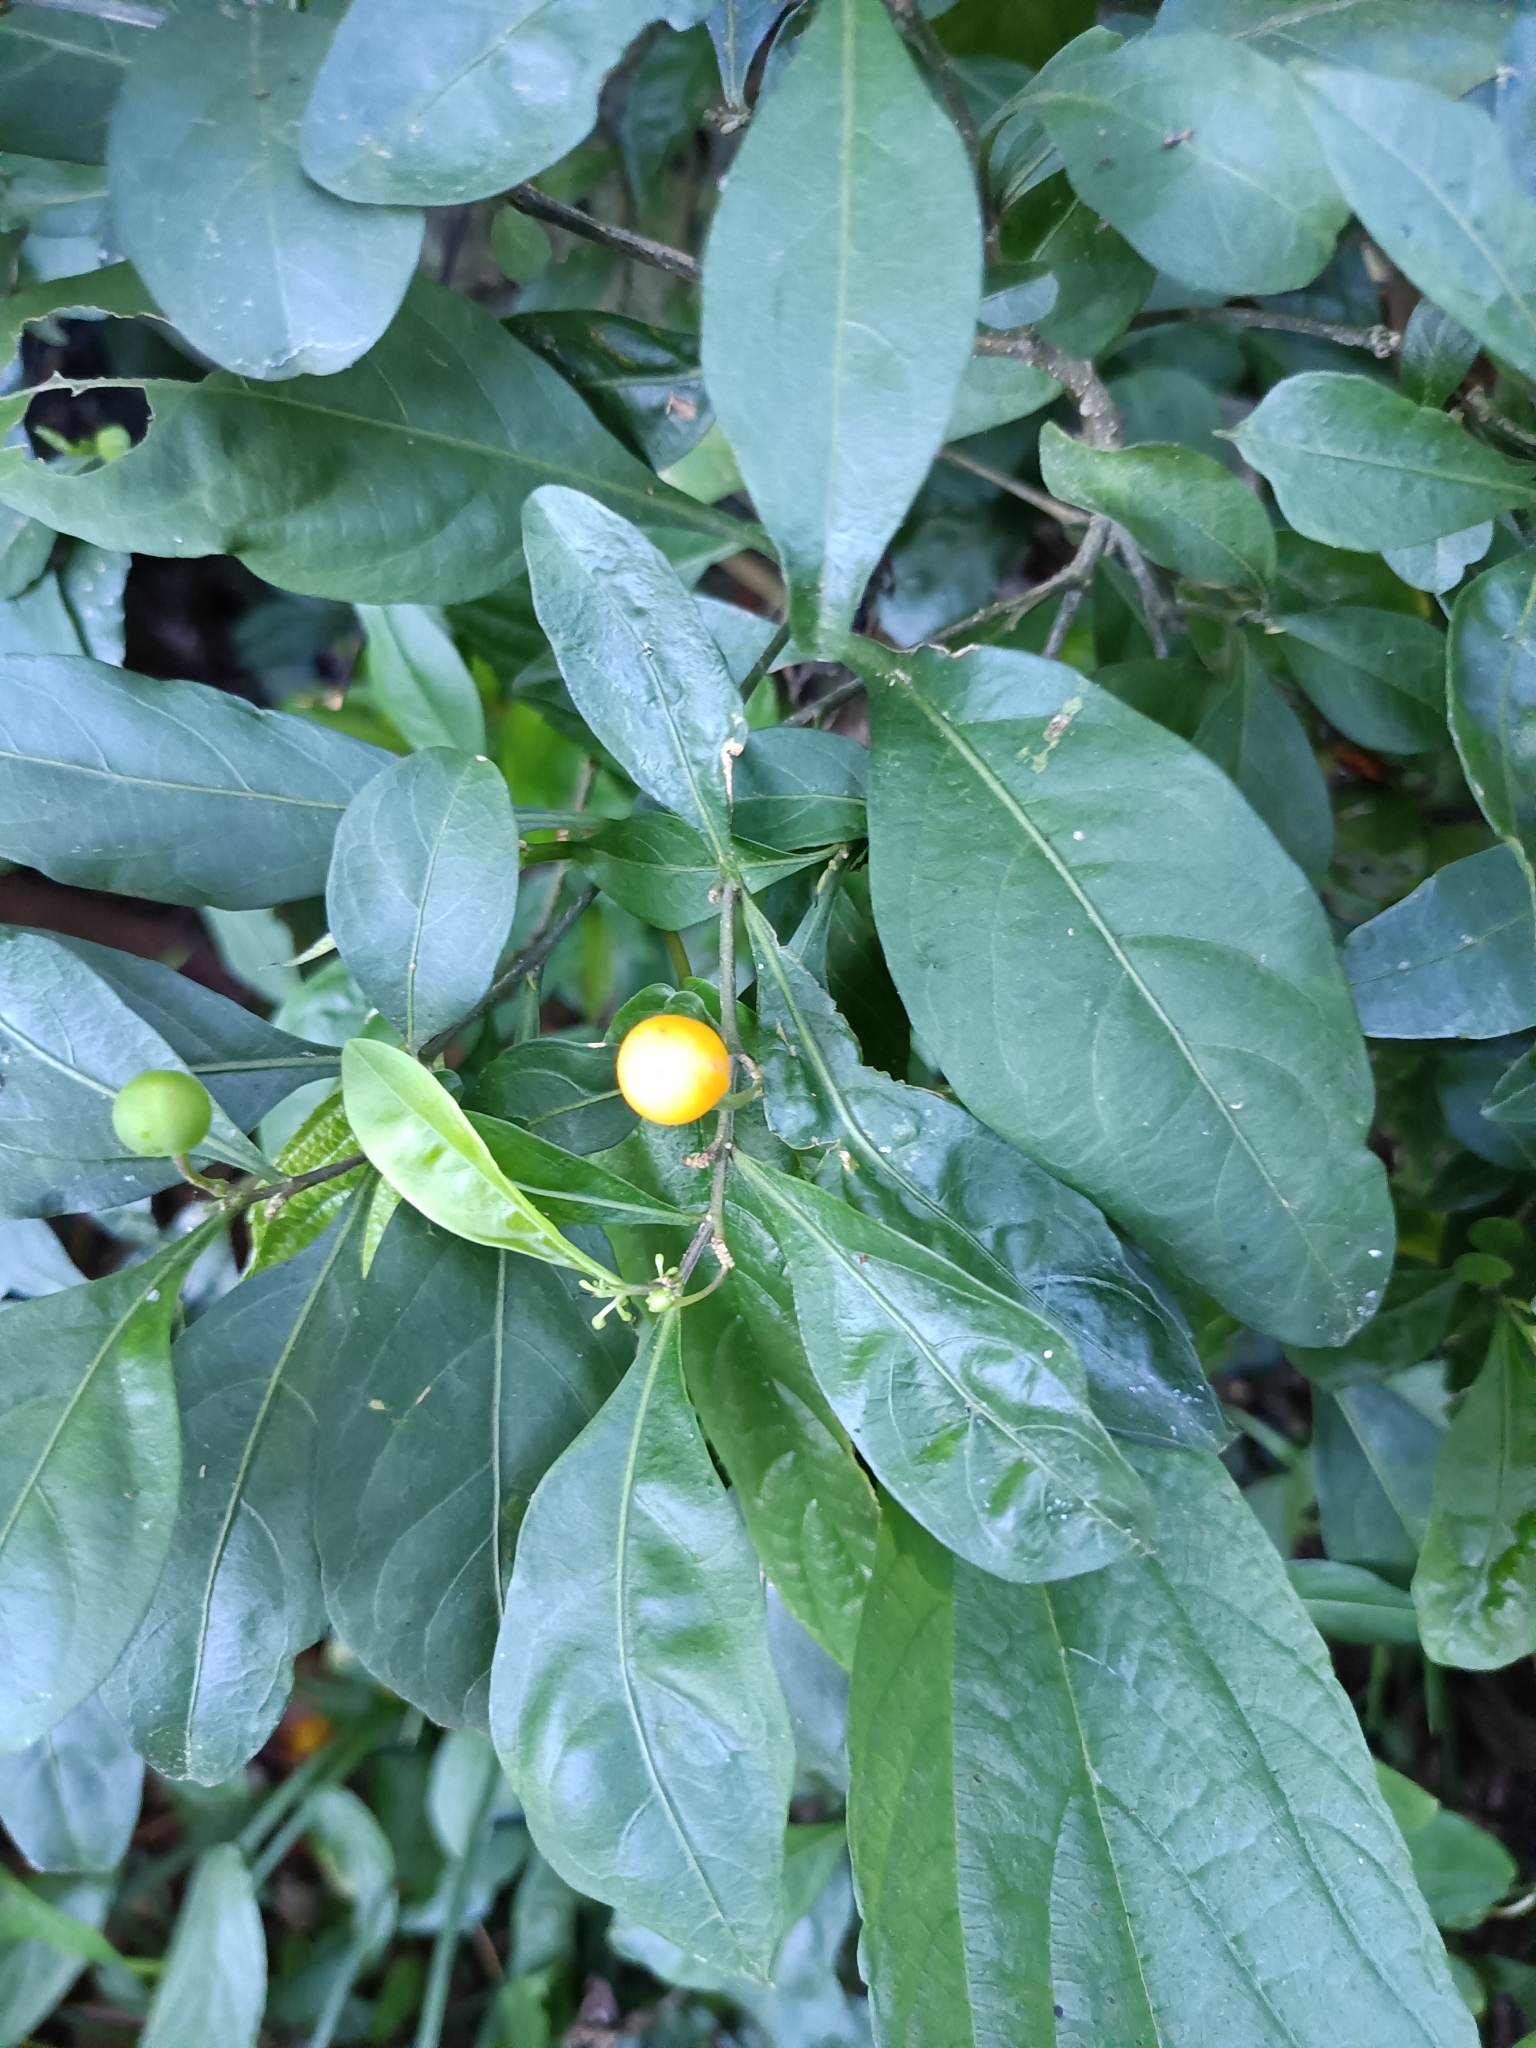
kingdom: Plantae
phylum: Tracheophyta
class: Magnoliopsida
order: Solanales
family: Solanaceae
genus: Solanum
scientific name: Solanum diphyllum
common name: Twoleaf nightshade
